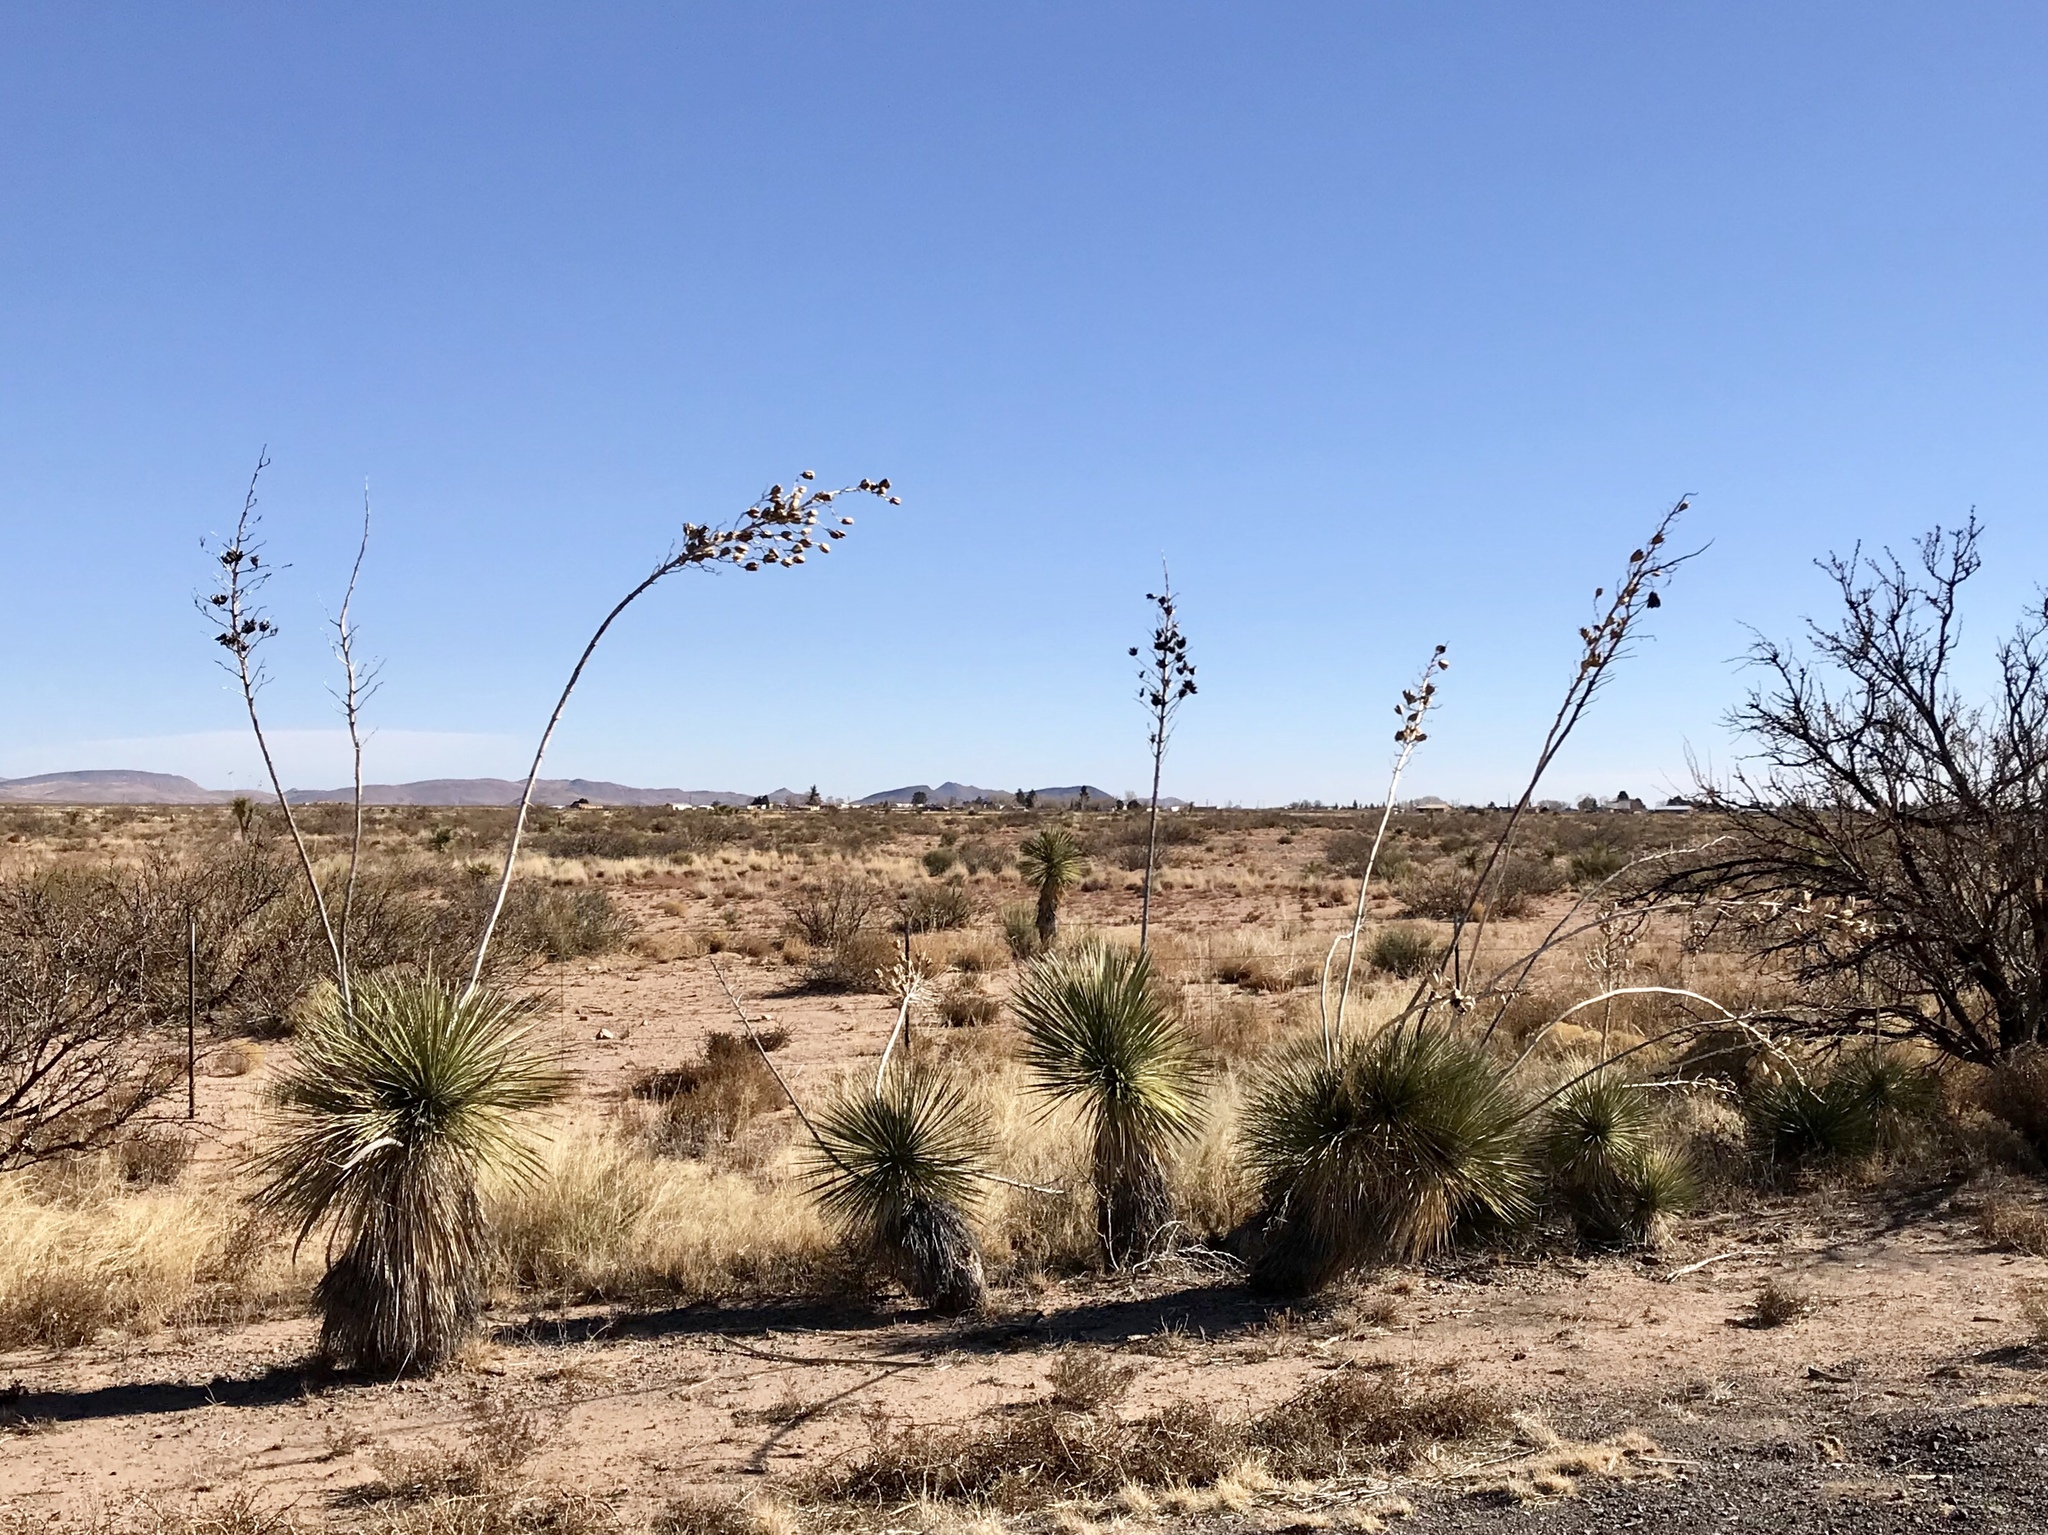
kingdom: Plantae
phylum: Tracheophyta
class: Liliopsida
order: Asparagales
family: Asparagaceae
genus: Yucca
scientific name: Yucca elata
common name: Palmella
